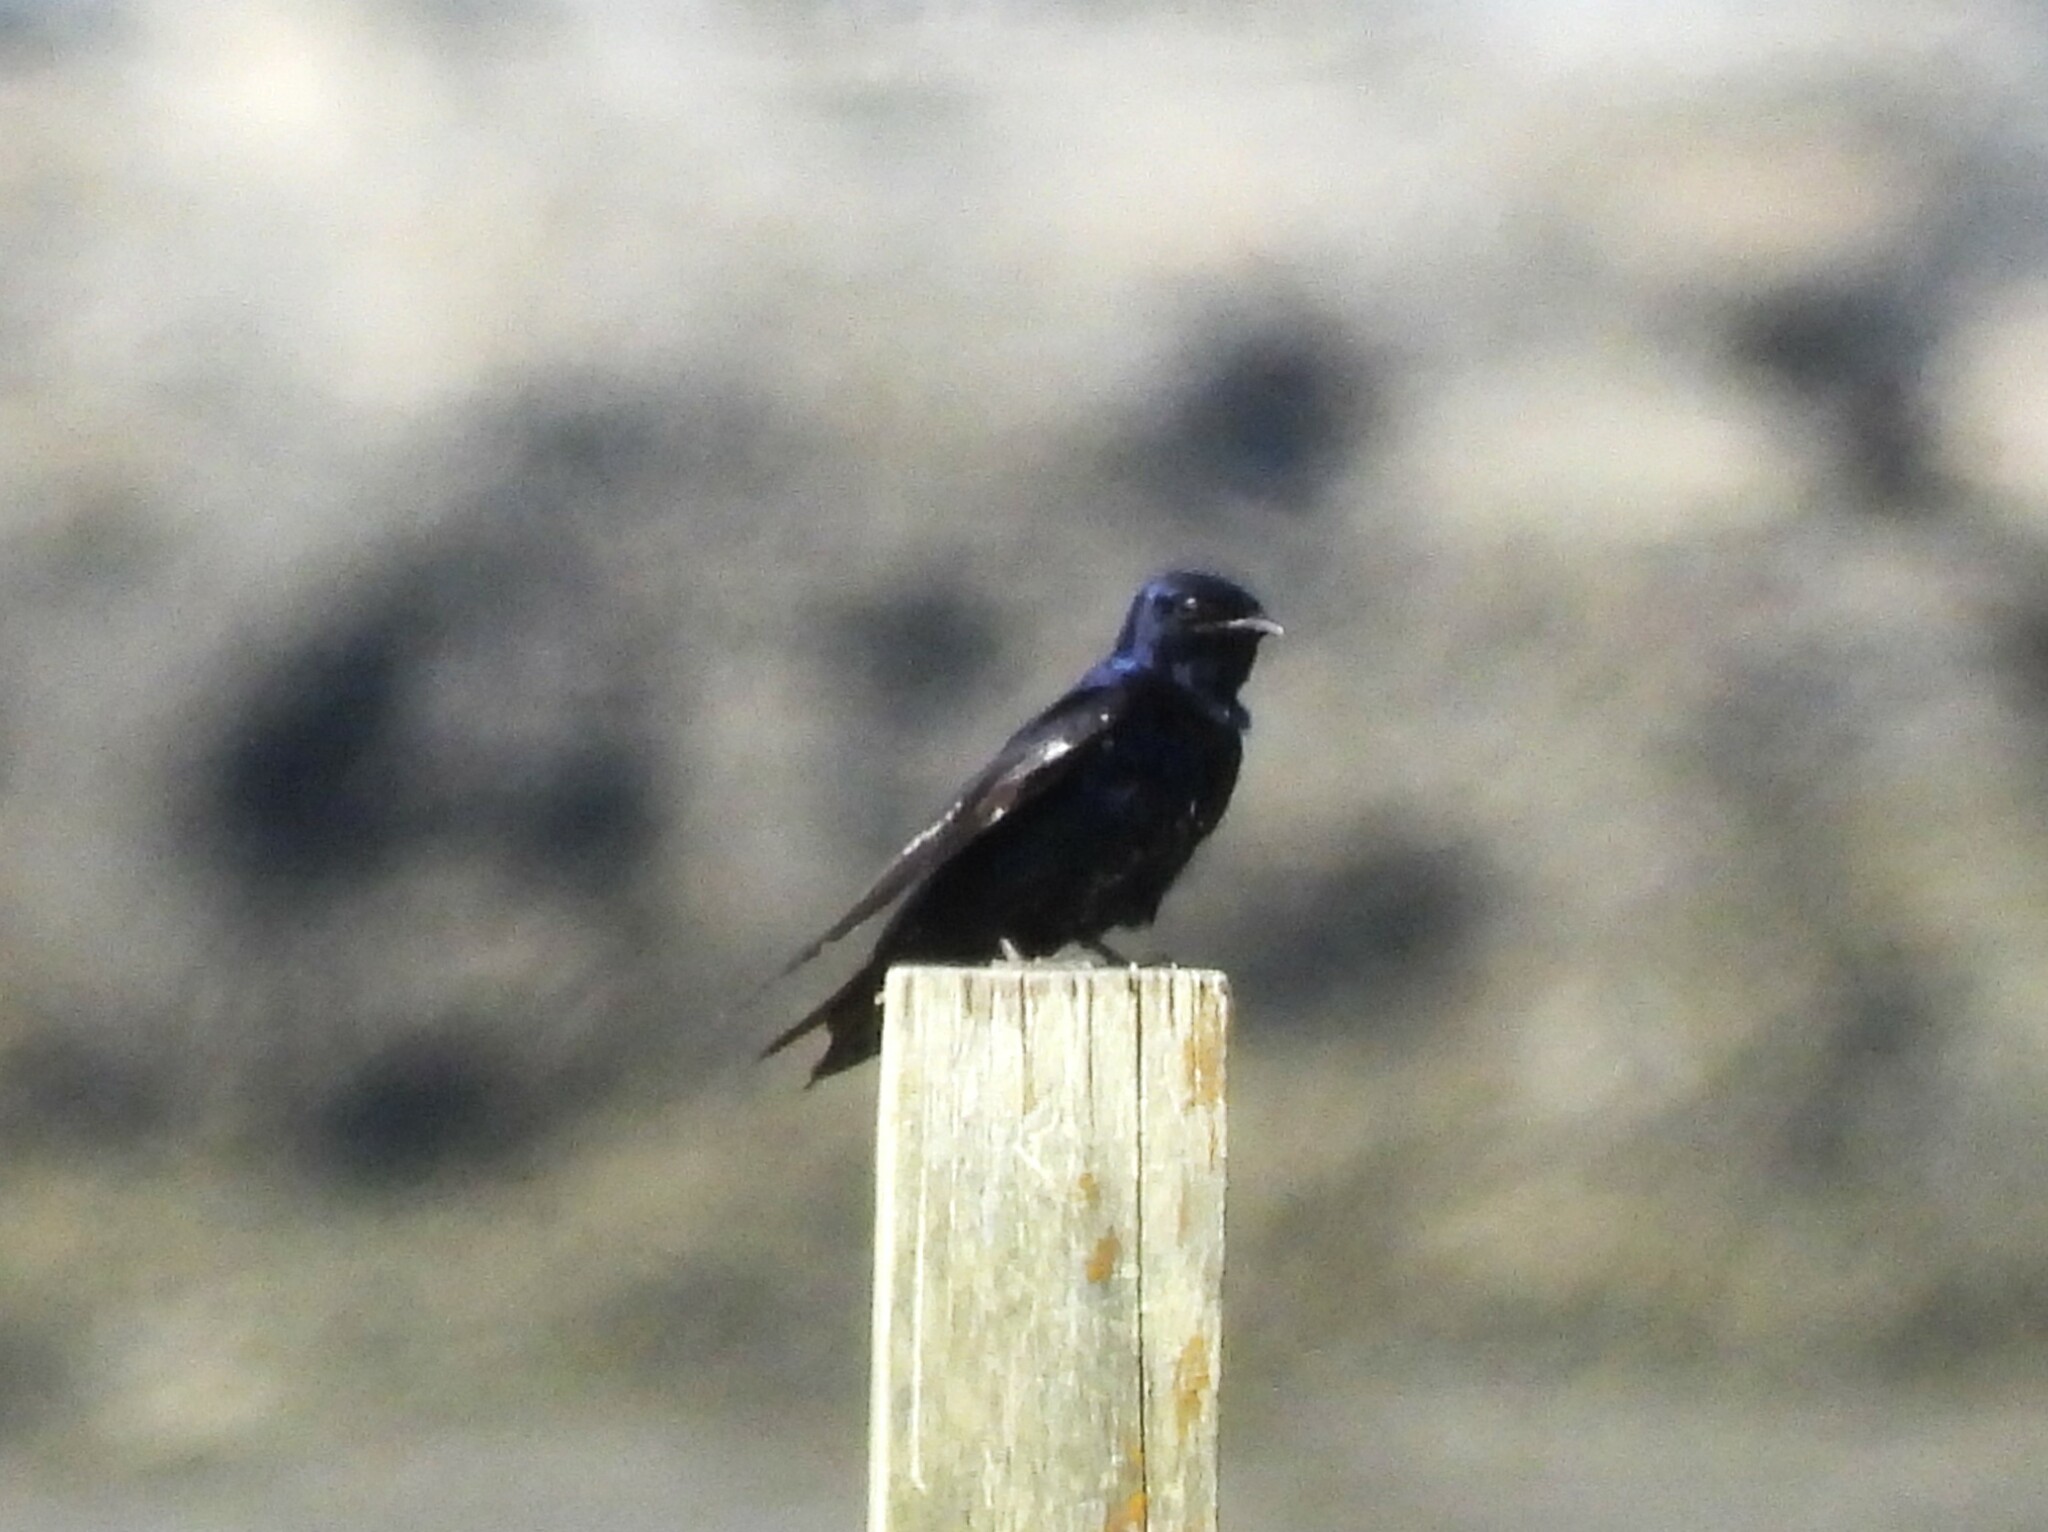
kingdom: Animalia
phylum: Chordata
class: Aves
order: Passeriformes
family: Hirundinidae
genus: Progne
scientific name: Progne subis
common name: Purple martin
